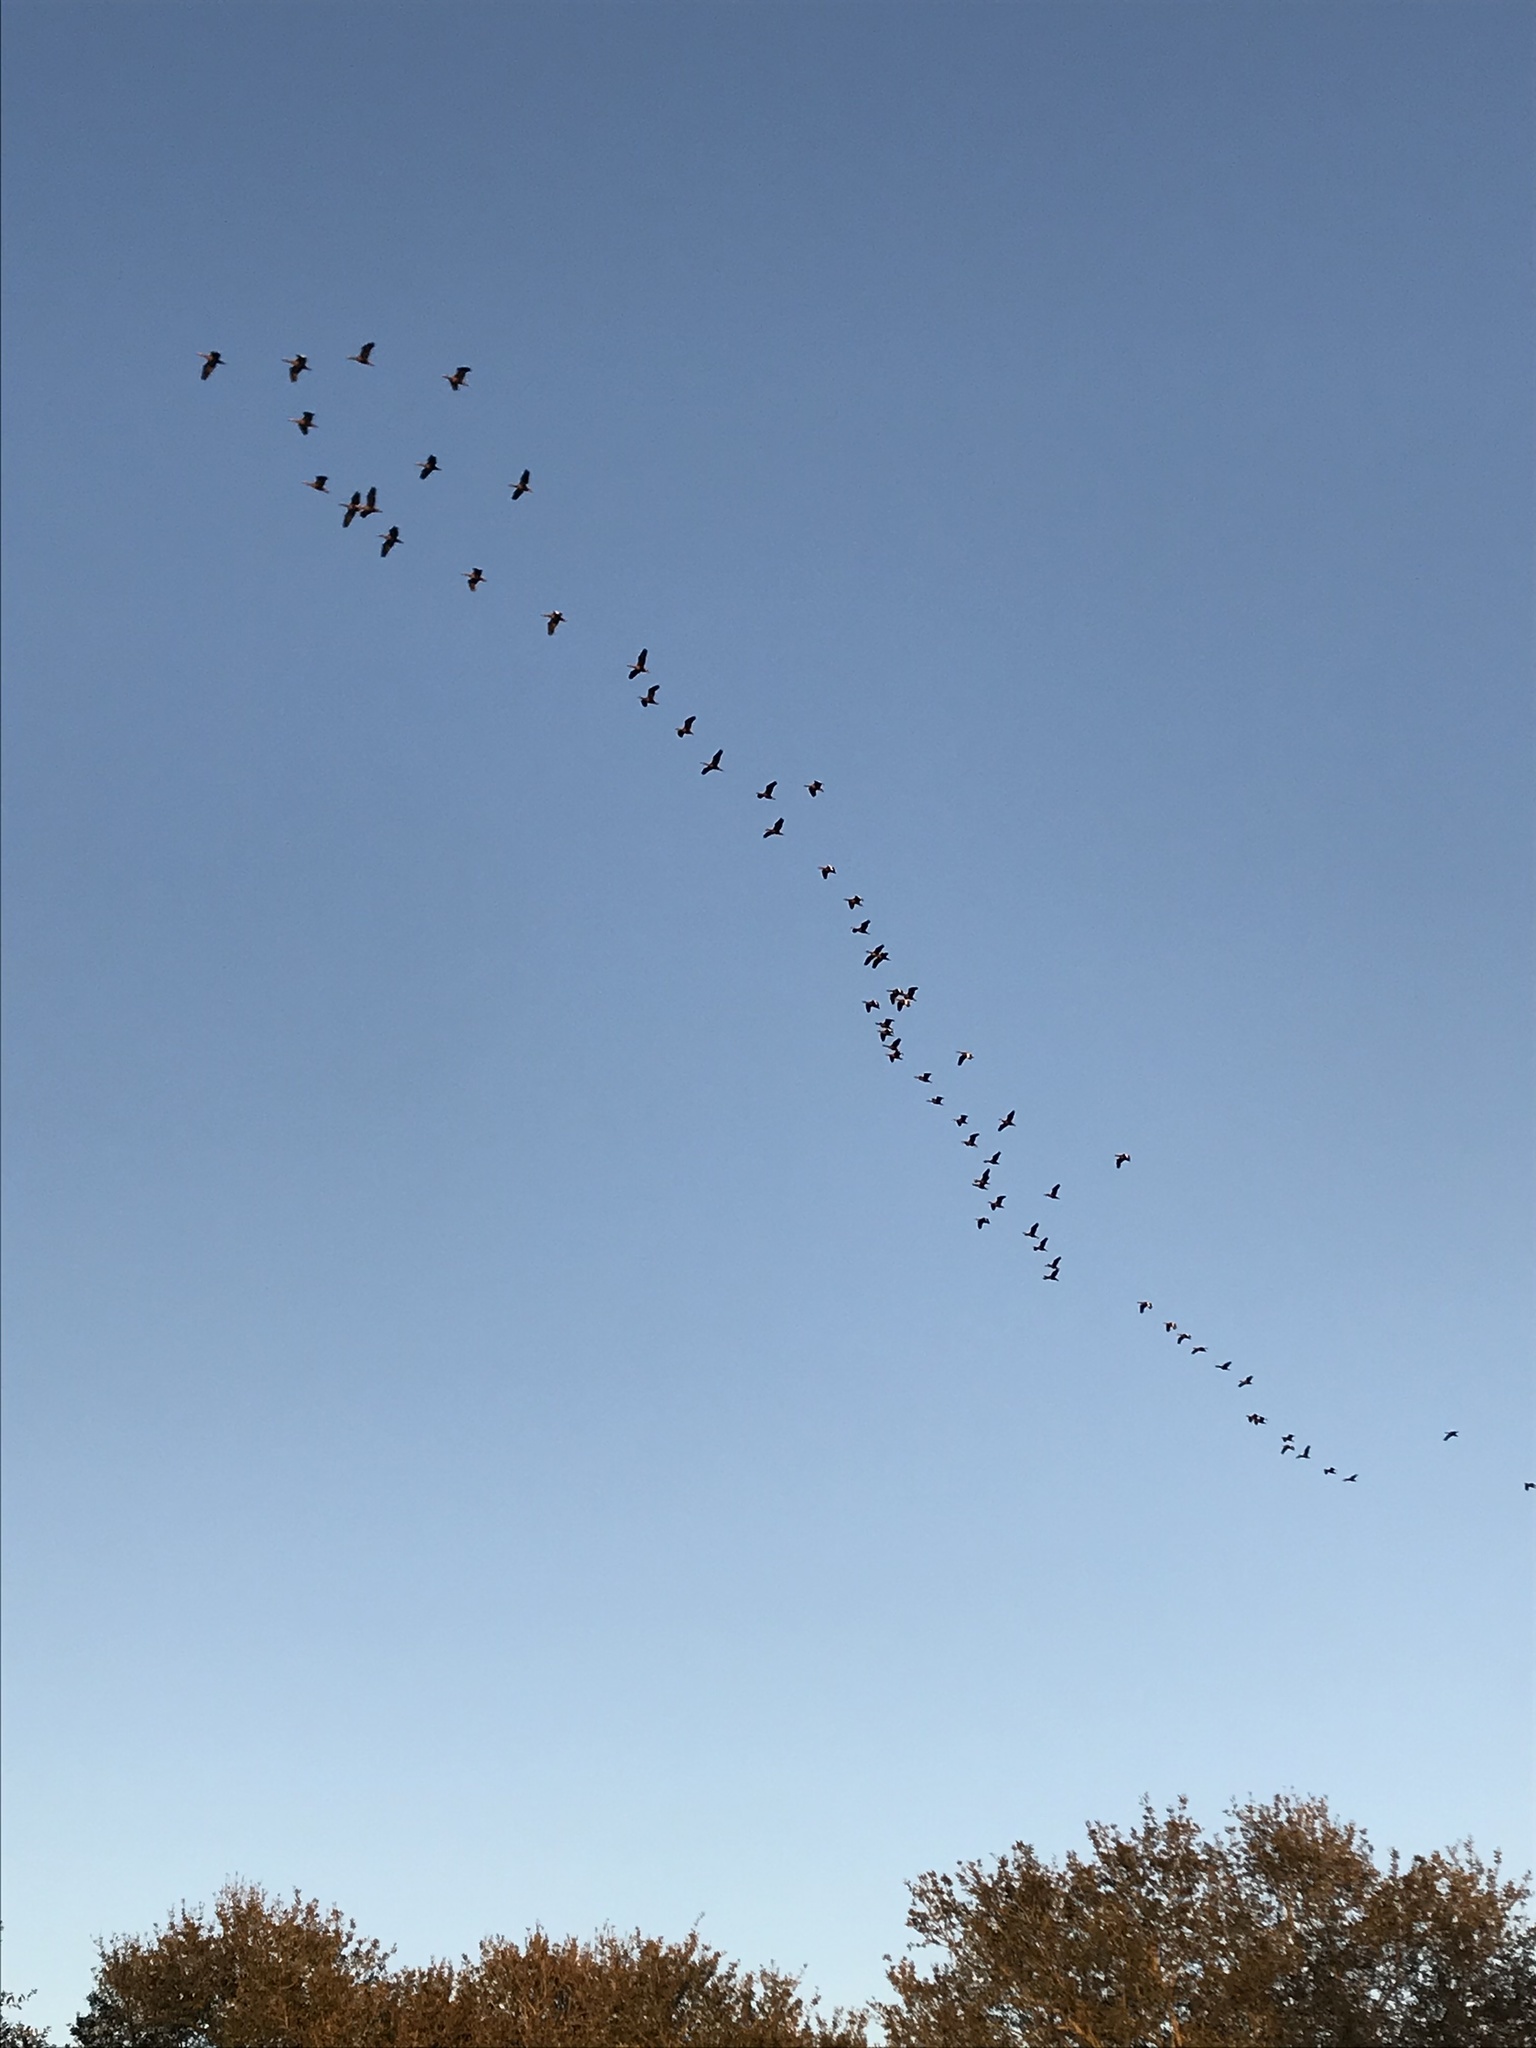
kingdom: Animalia
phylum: Chordata
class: Aves
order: Anseriformes
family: Anatidae
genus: Dendrocygna
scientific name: Dendrocygna autumnalis
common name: Black-bellied whistling duck
